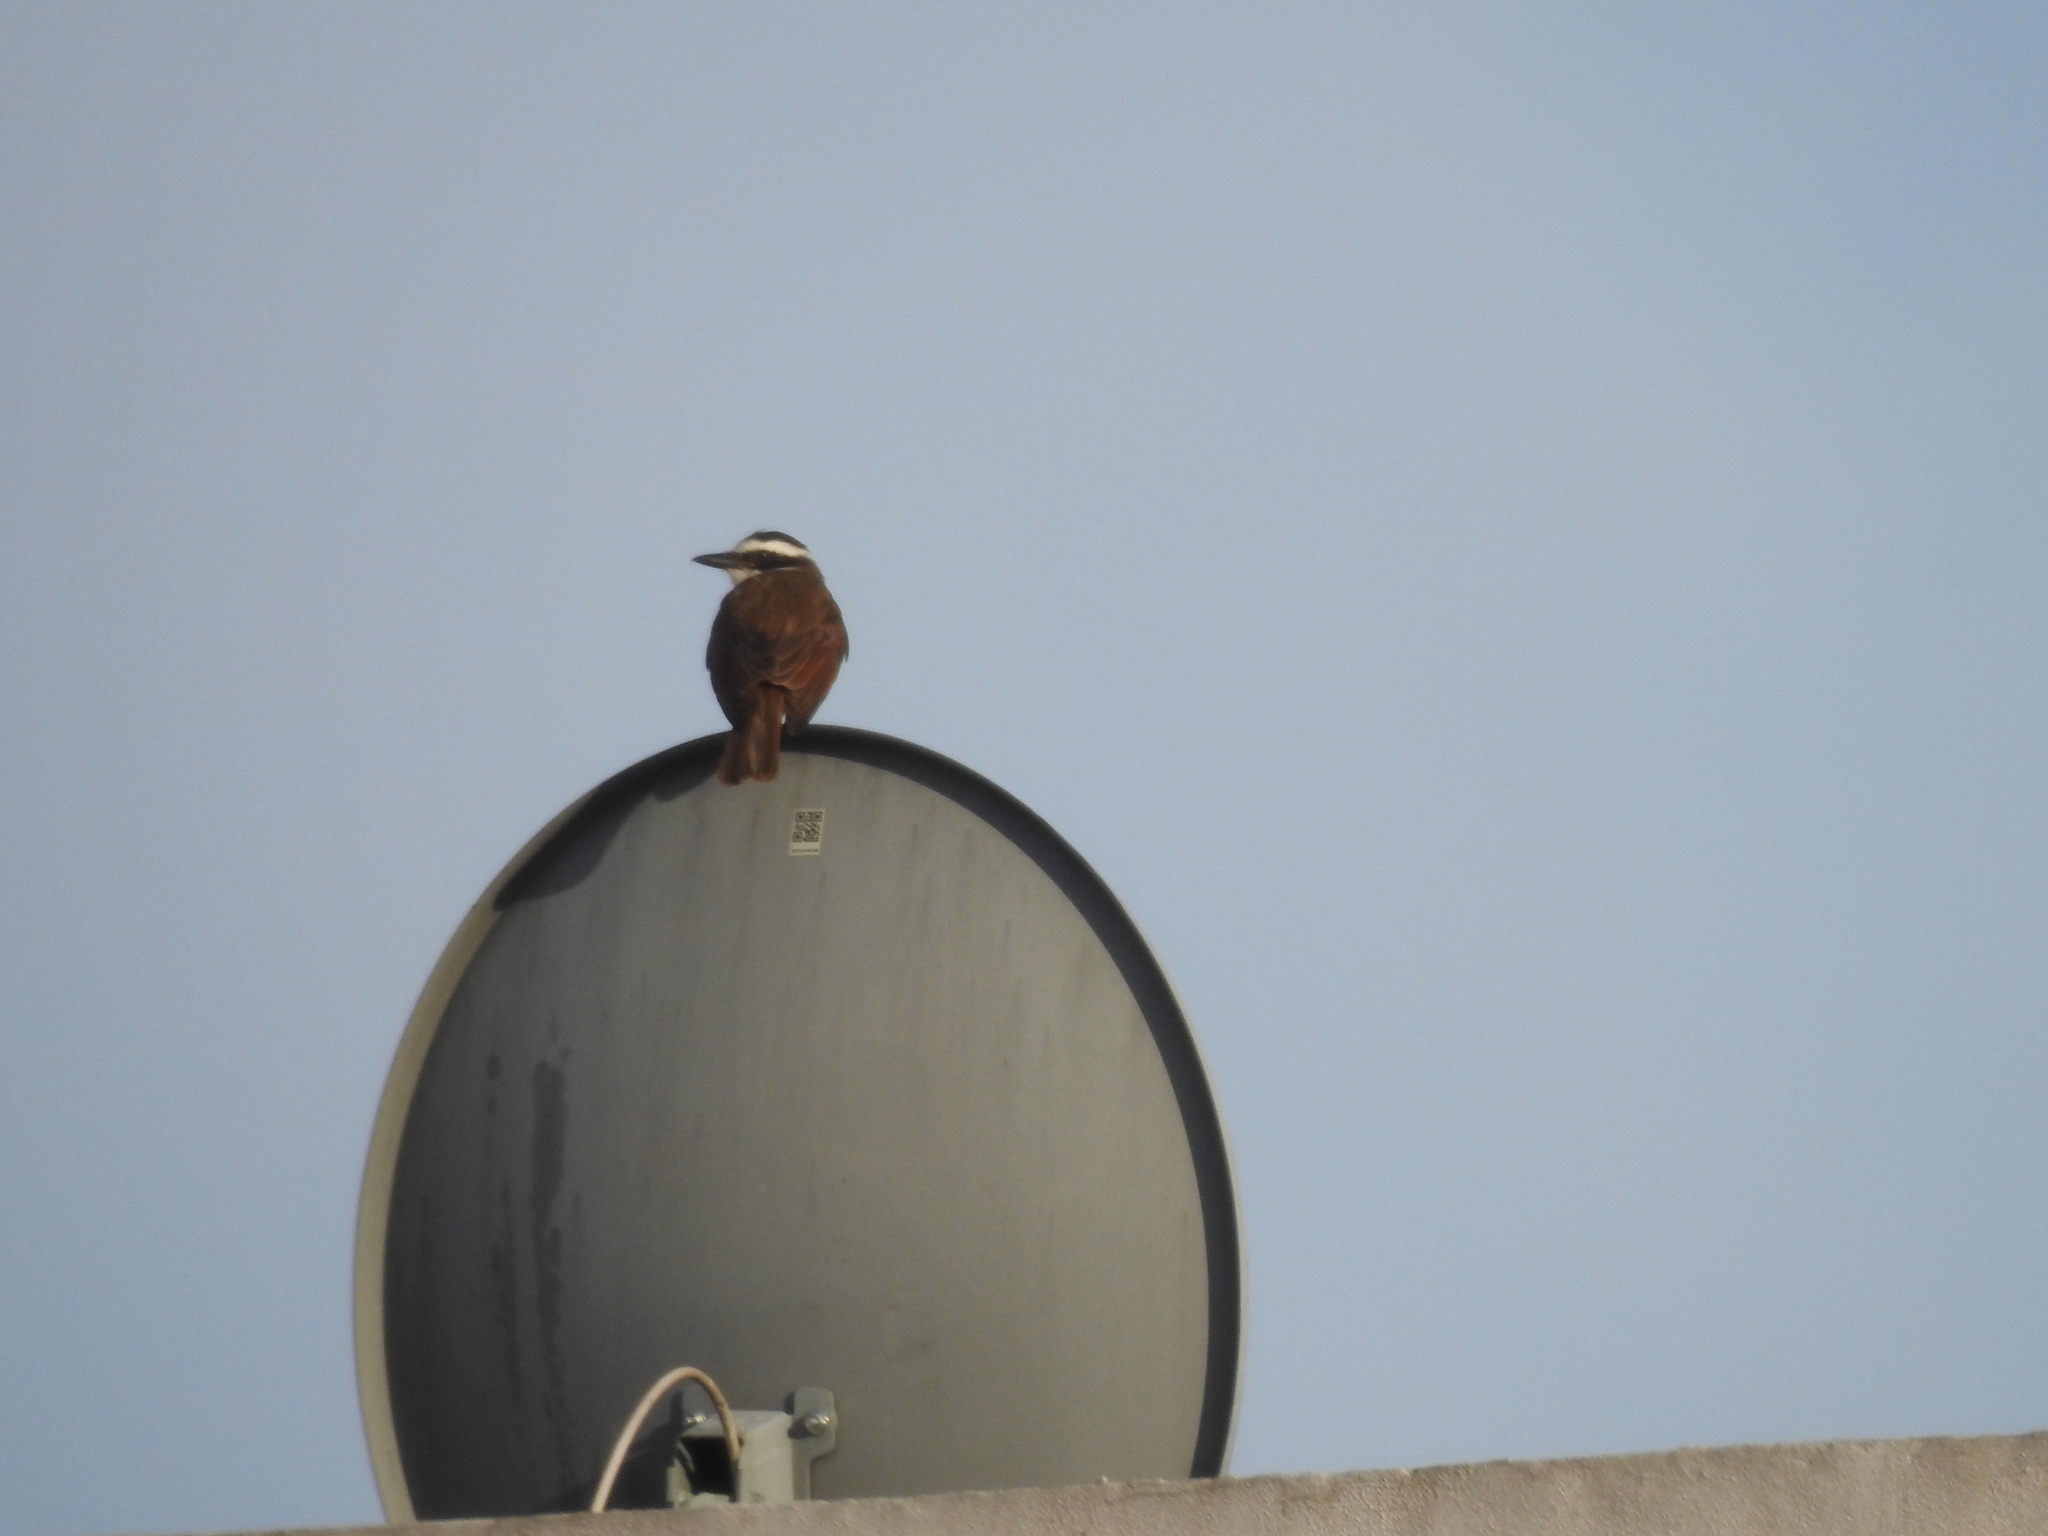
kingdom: Animalia
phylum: Chordata
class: Aves
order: Passeriformes
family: Tyrannidae
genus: Pitangus
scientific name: Pitangus sulphuratus
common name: Great kiskadee
